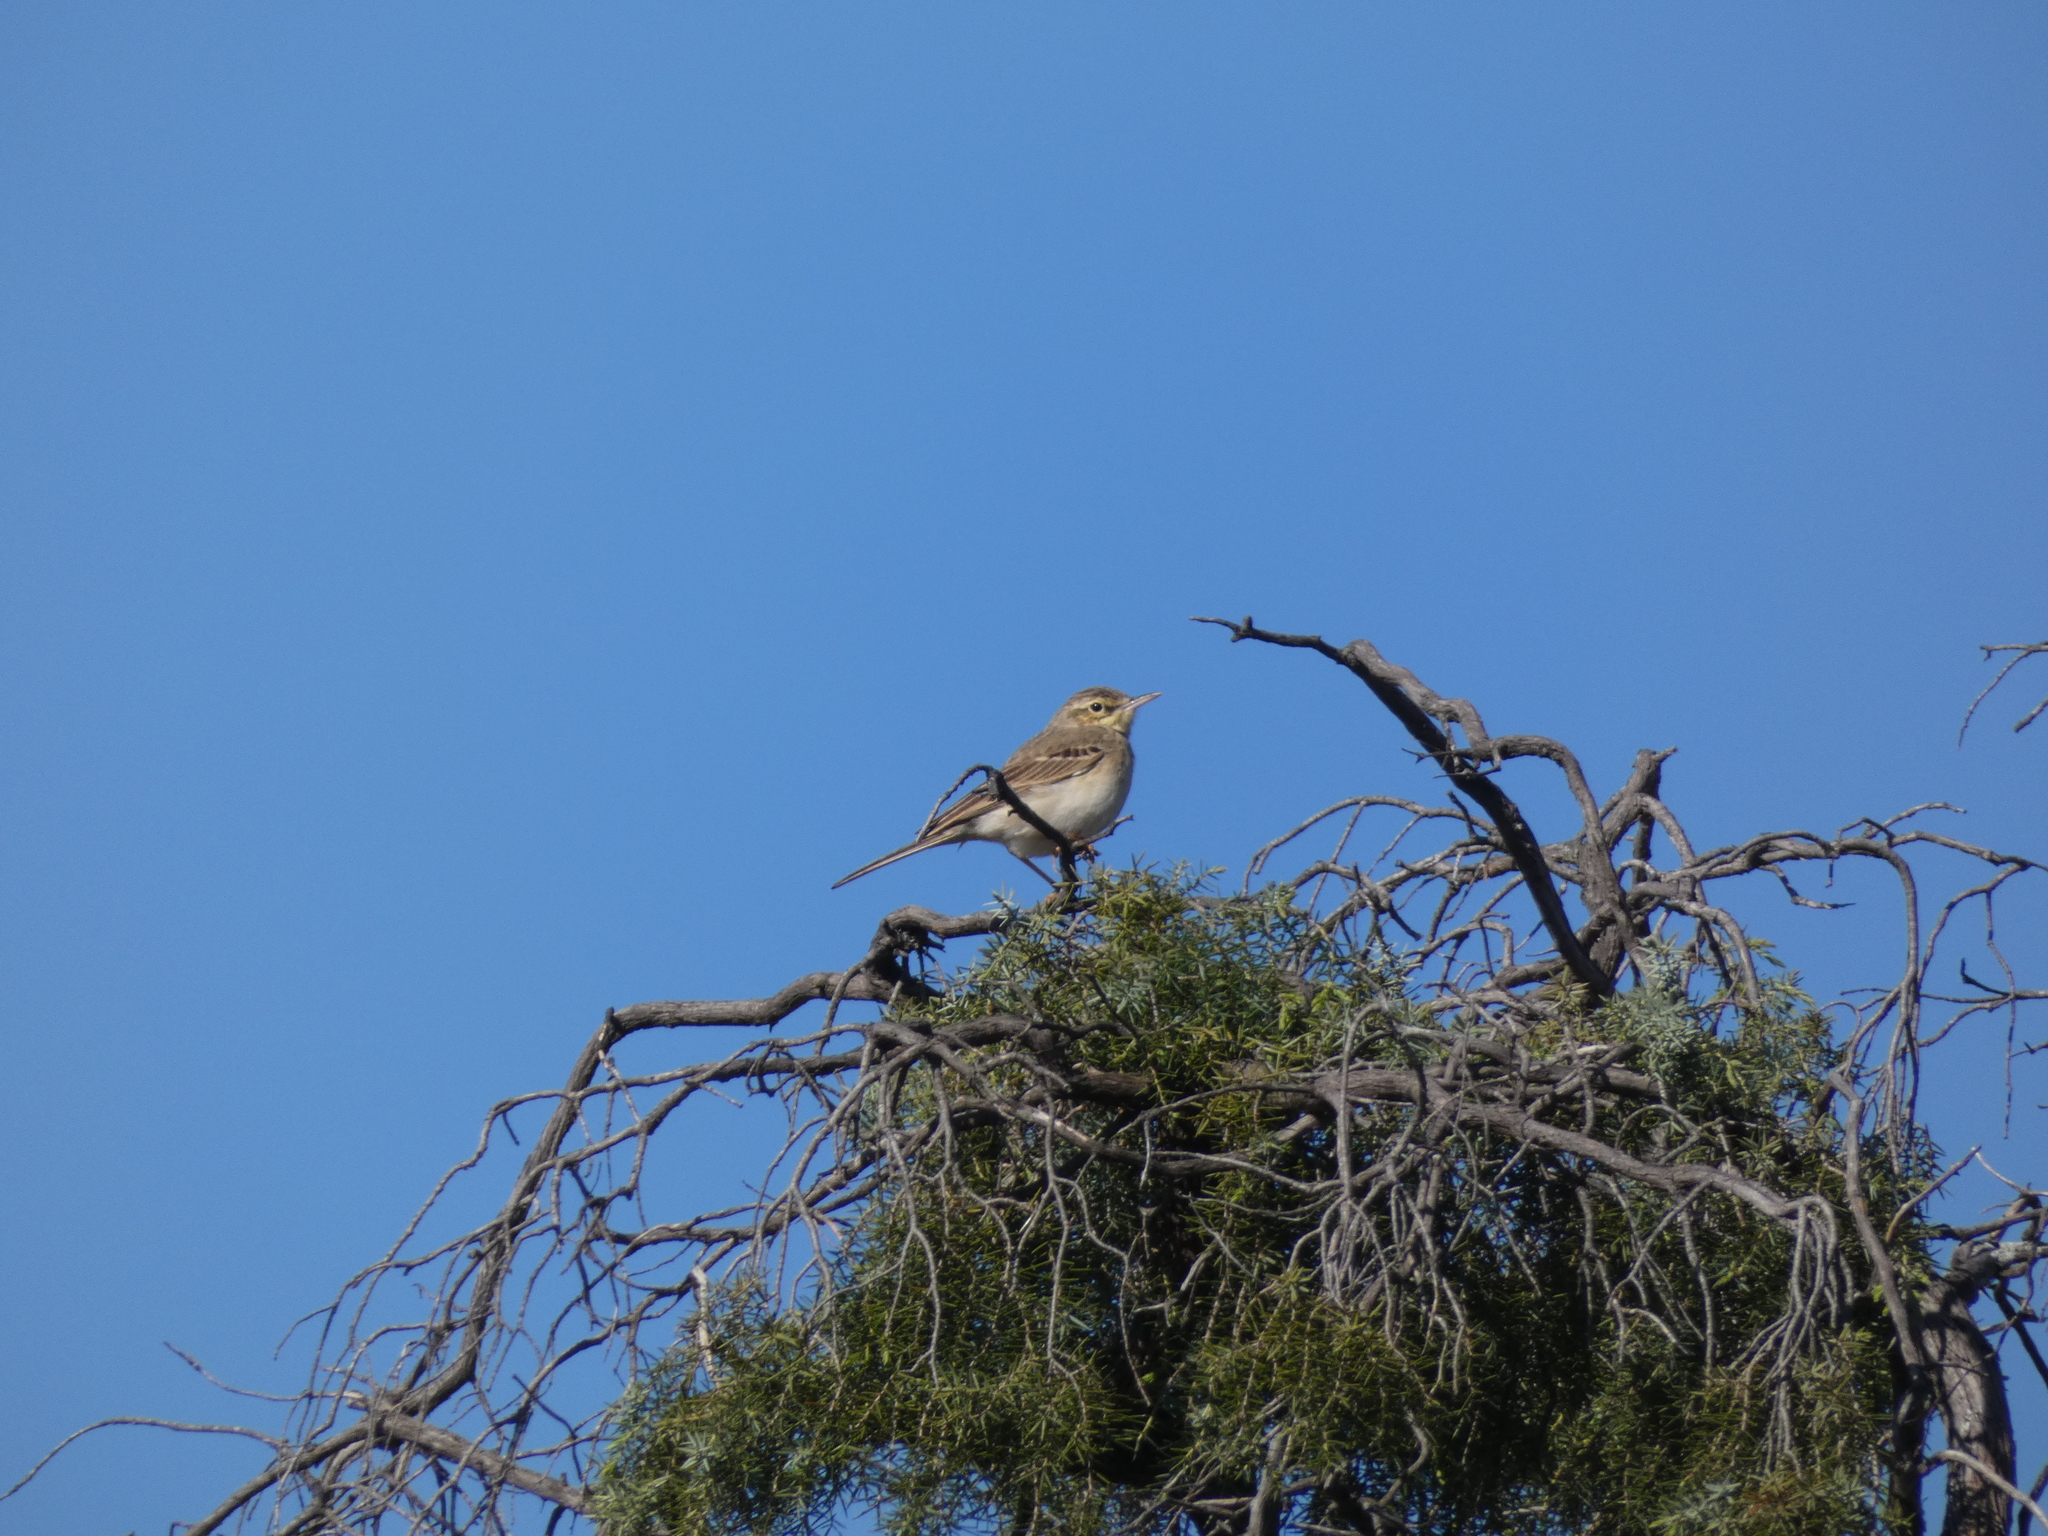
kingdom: Animalia
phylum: Chordata
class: Aves
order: Passeriformes
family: Motacillidae
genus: Anthus
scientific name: Anthus campestris
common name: Tawny pipit
